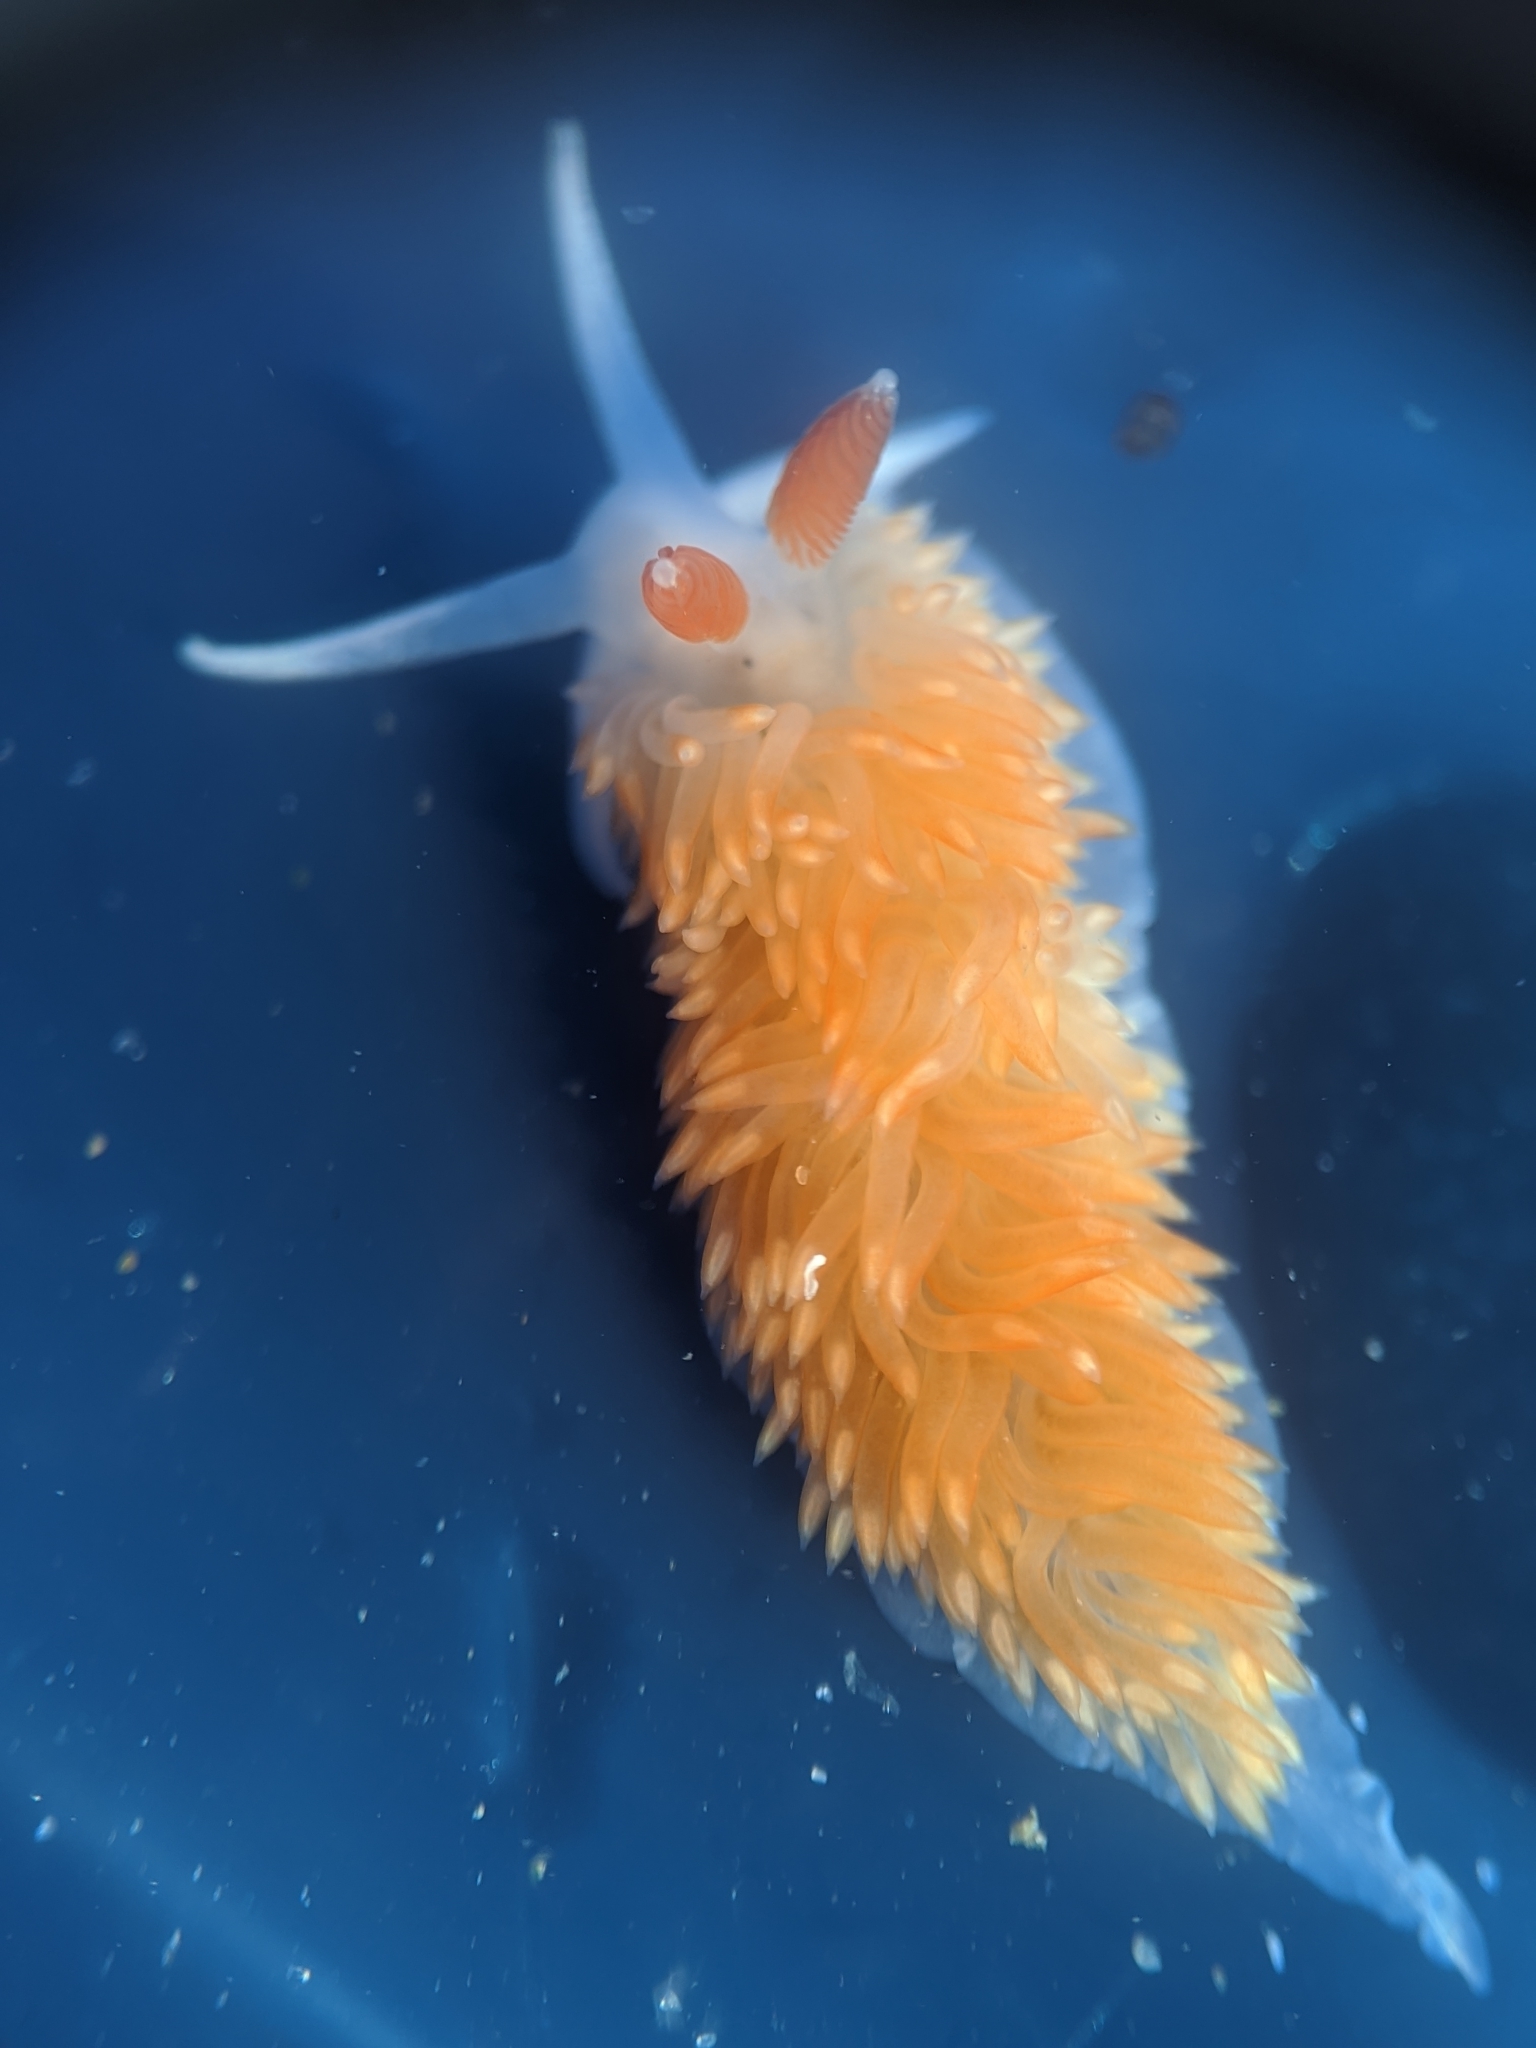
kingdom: Animalia
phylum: Mollusca
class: Gastropoda
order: Nudibranchia
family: Aeolidiidae
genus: Anteaeolidiella
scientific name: Anteaeolidiella oliviae
